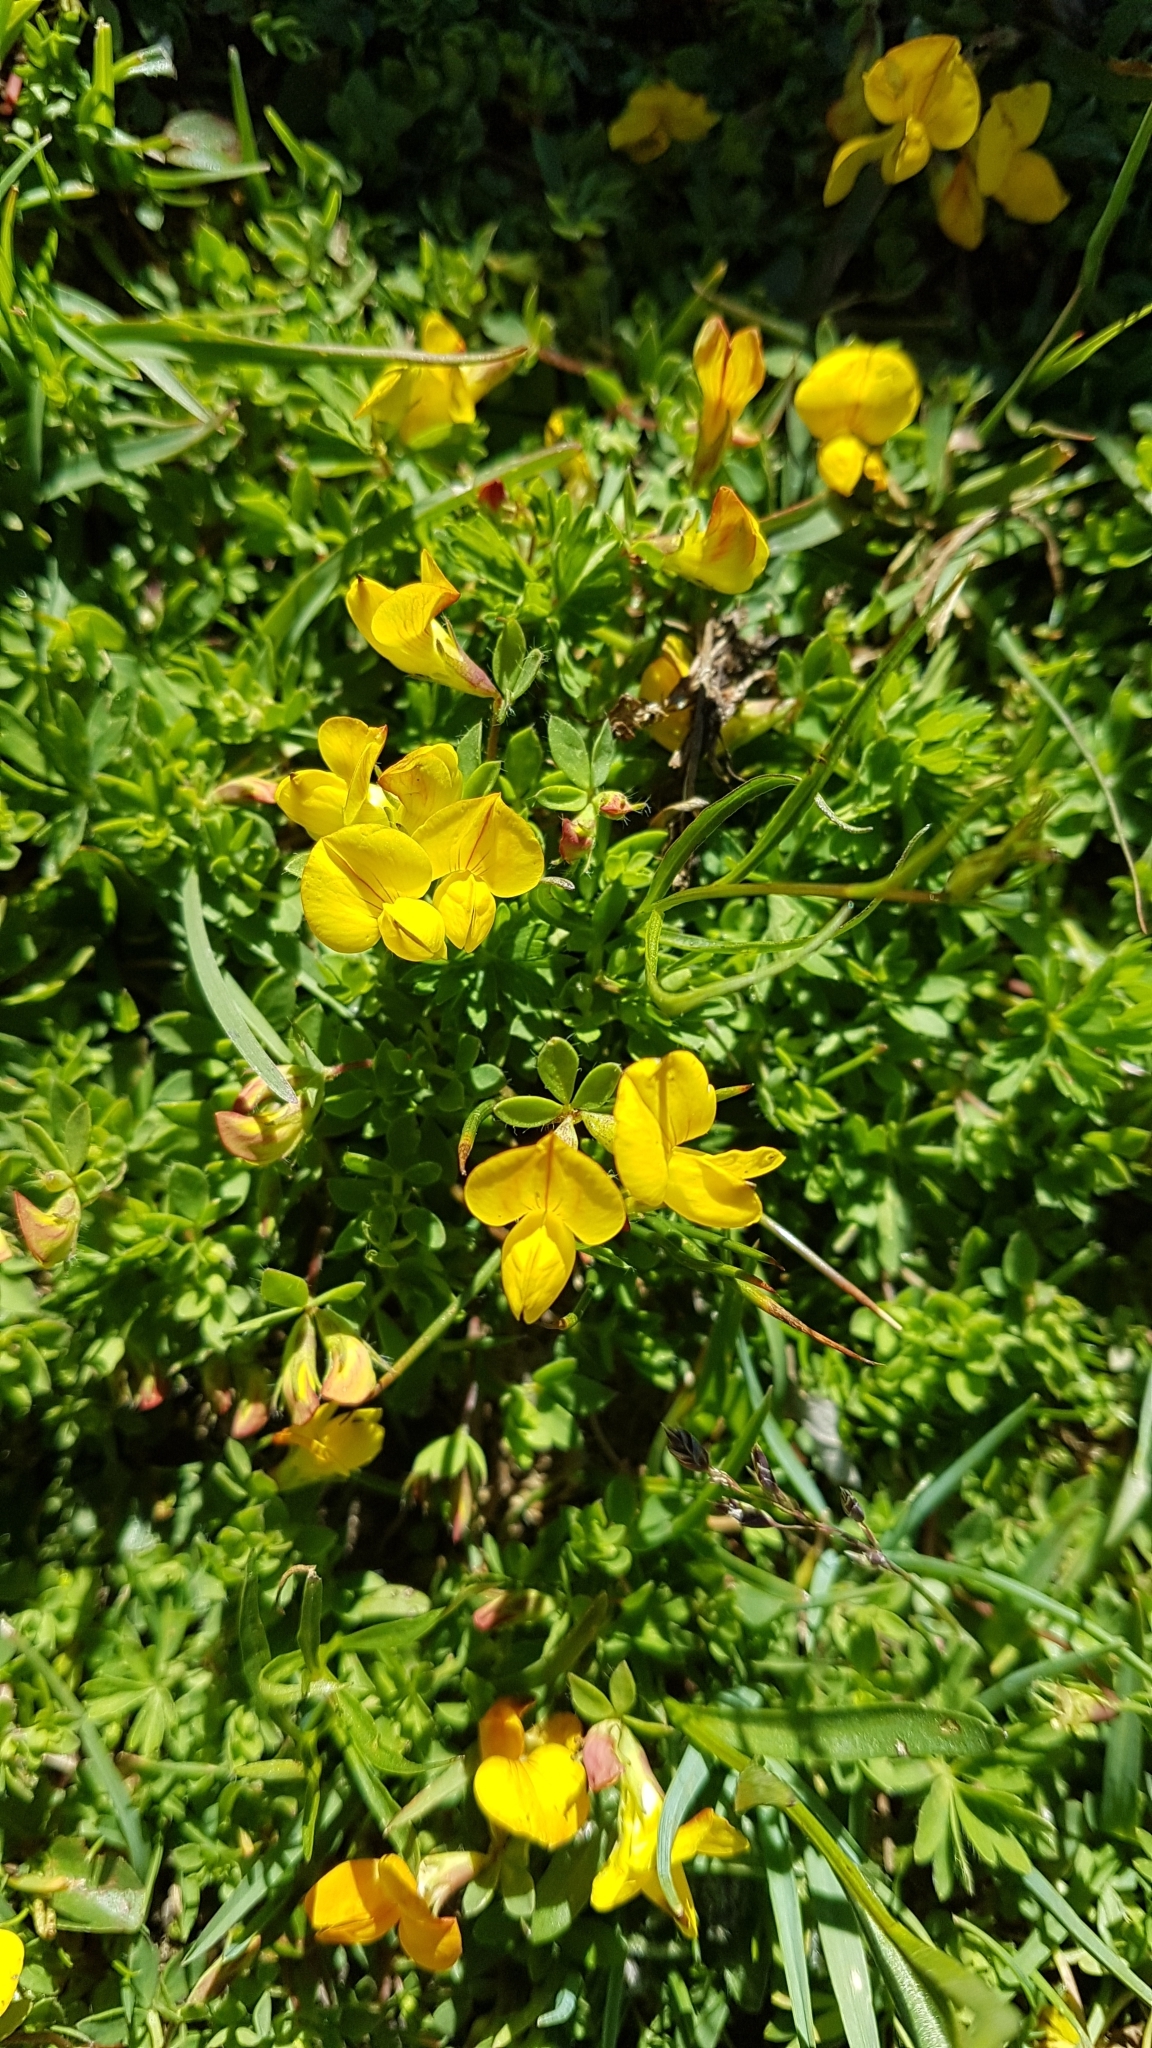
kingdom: Plantae
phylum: Tracheophyta
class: Magnoliopsida
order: Fabales
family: Fabaceae
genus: Lotus
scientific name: Lotus corniculatus
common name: Common bird's-foot-trefoil
